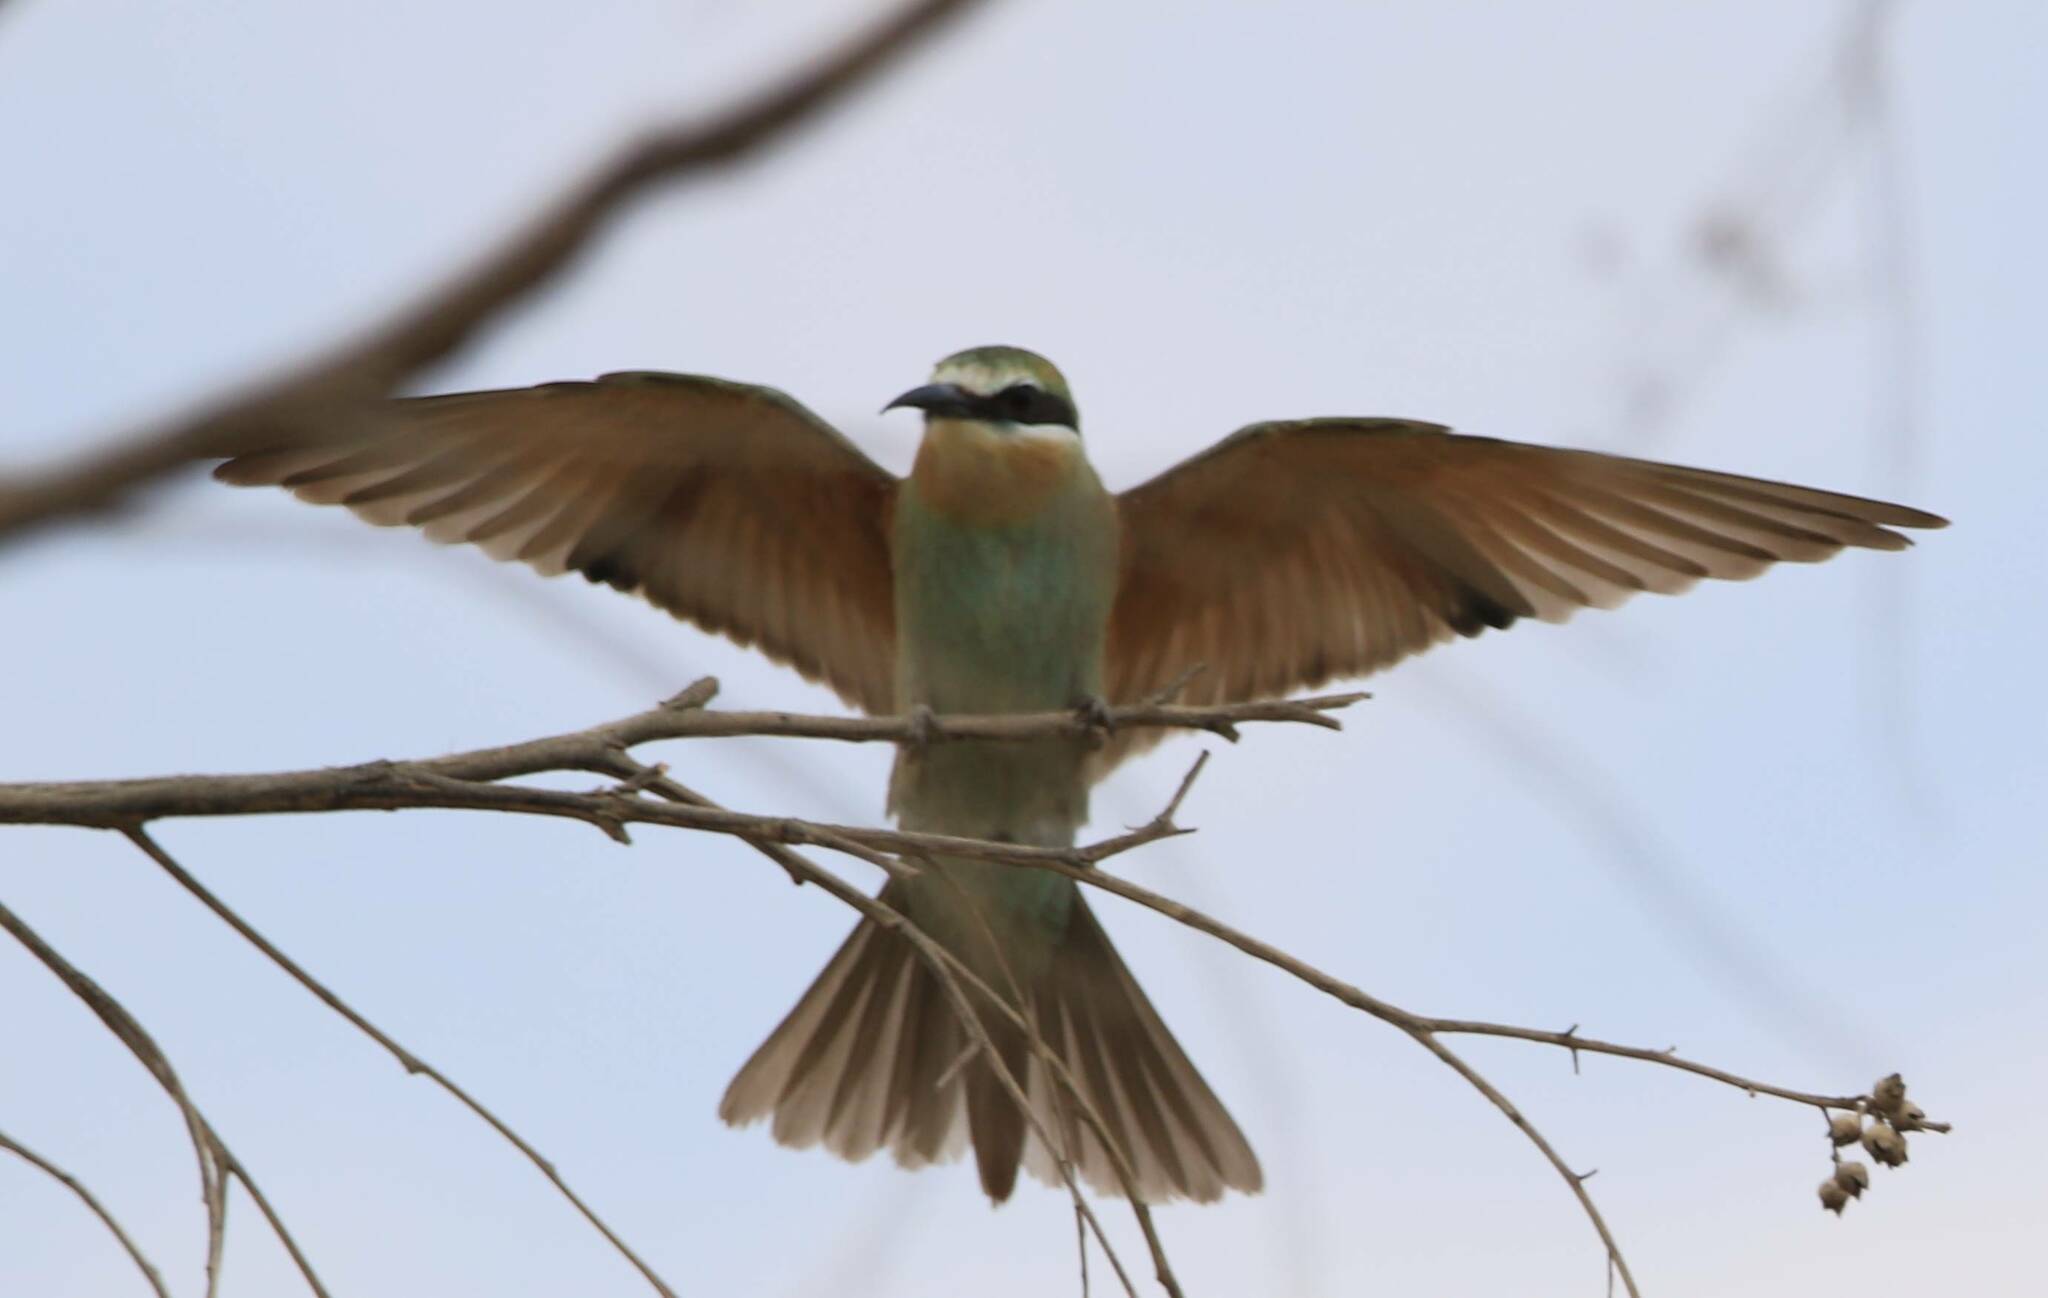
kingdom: Animalia
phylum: Chordata
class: Aves
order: Coraciiformes
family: Meropidae
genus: Merops
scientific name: Merops persicus
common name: Blue-cheeked bee-eater
